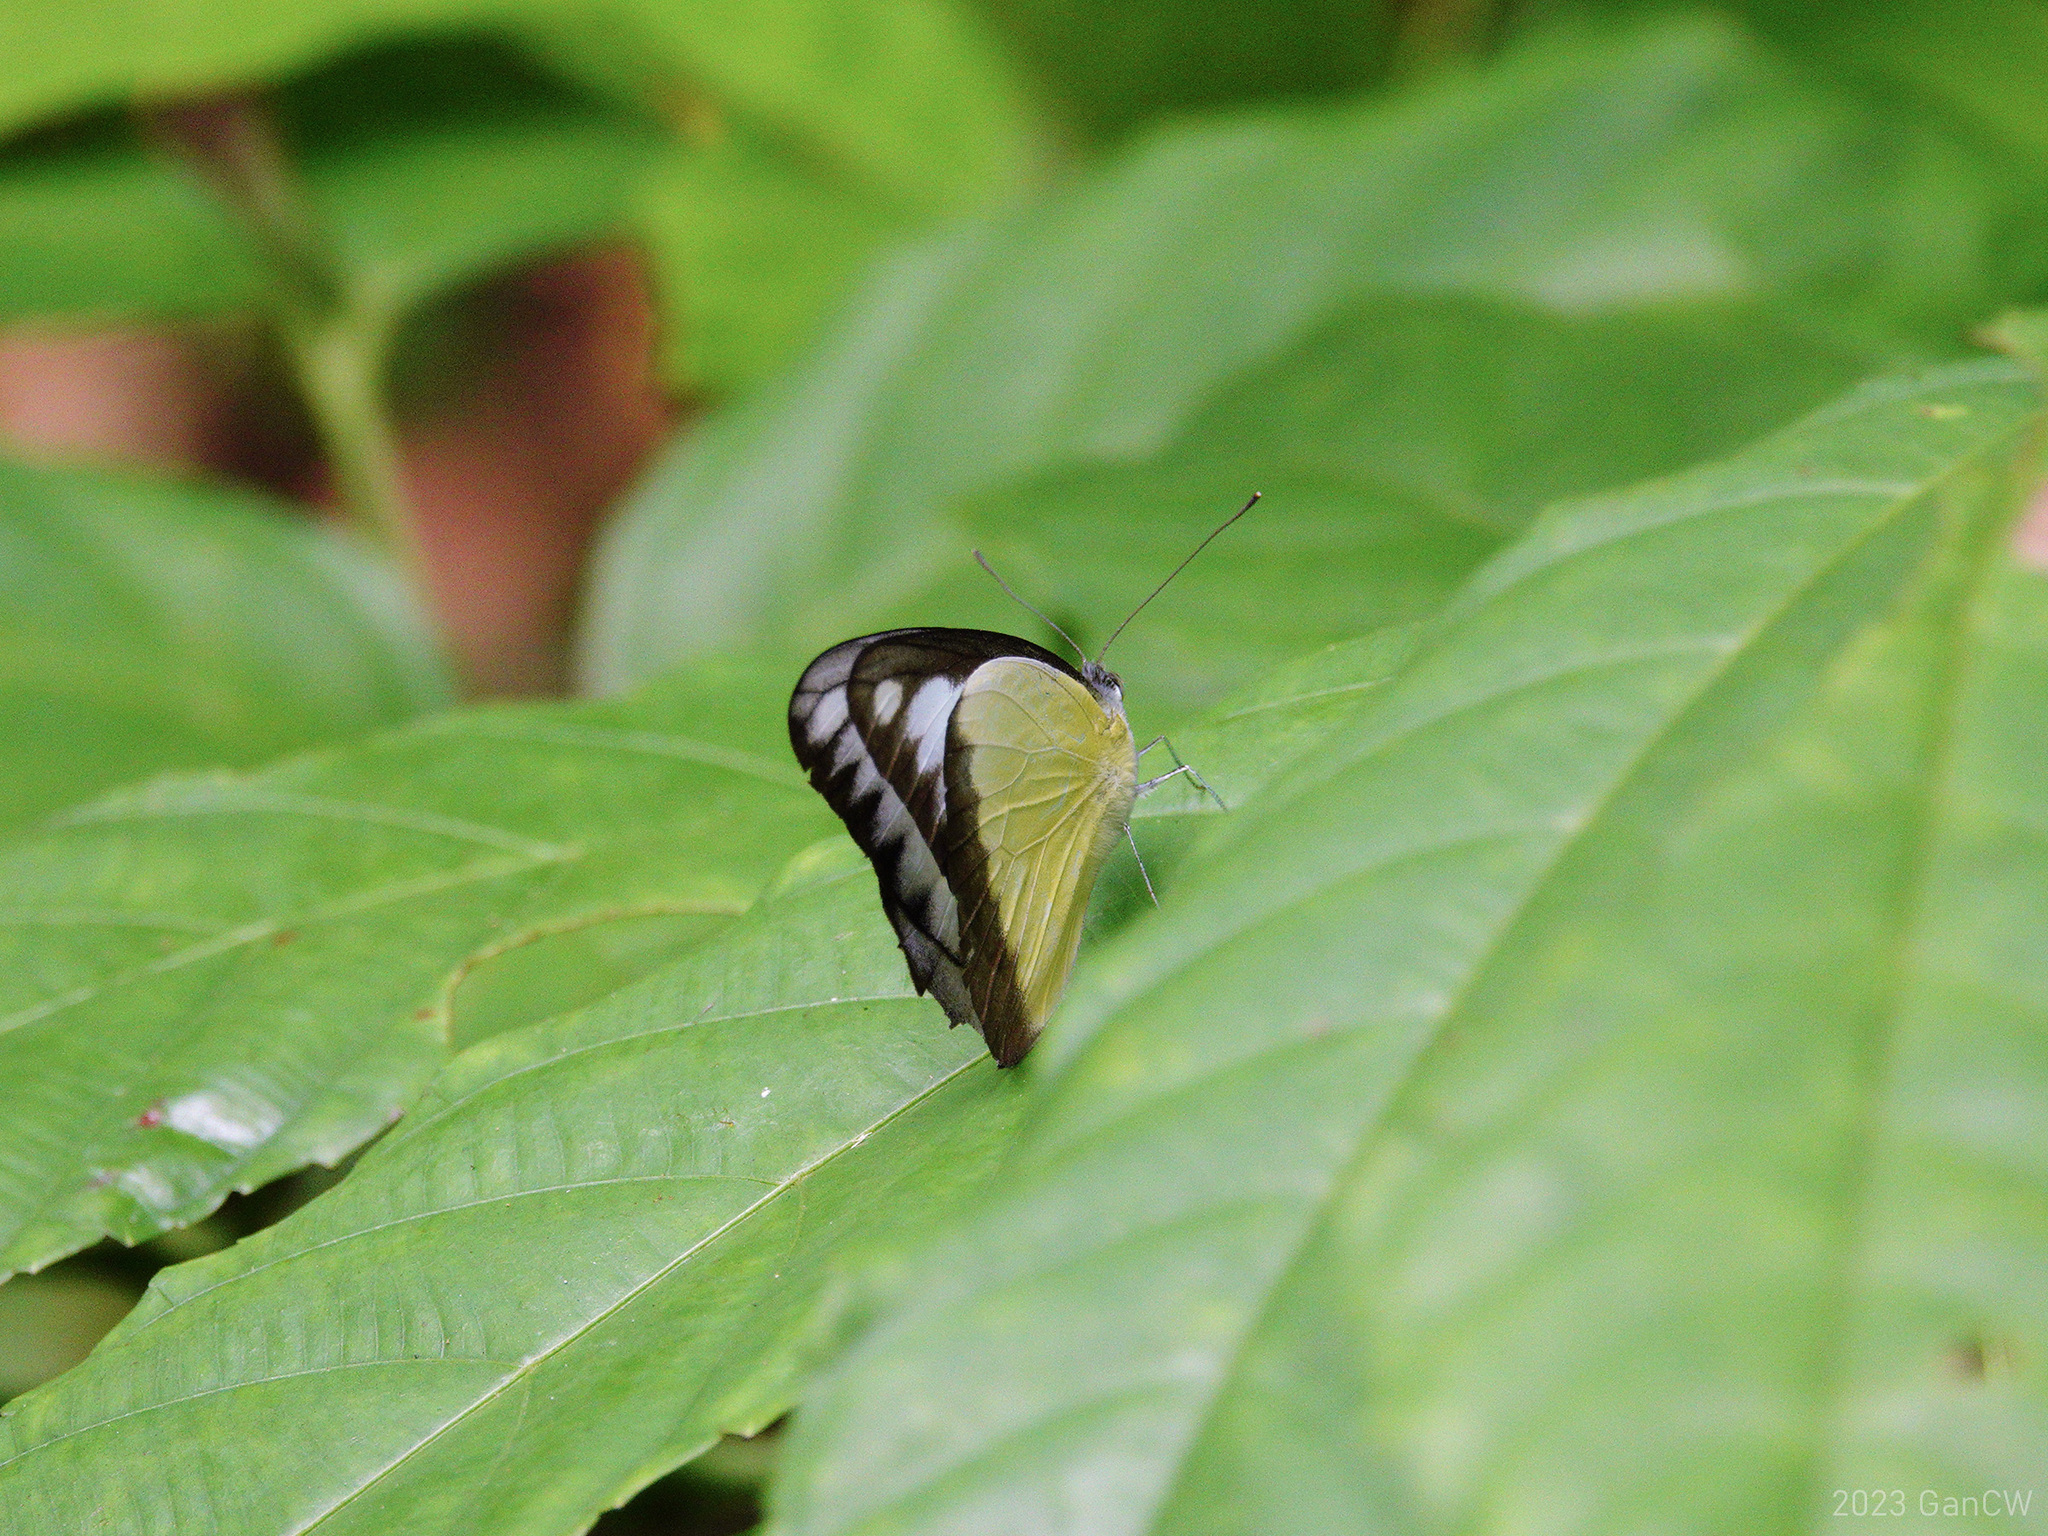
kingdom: Animalia
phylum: Arthropoda
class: Insecta
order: Lepidoptera
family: Pieridae
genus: Appias
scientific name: Appias lyncida
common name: Chocolate albatross
